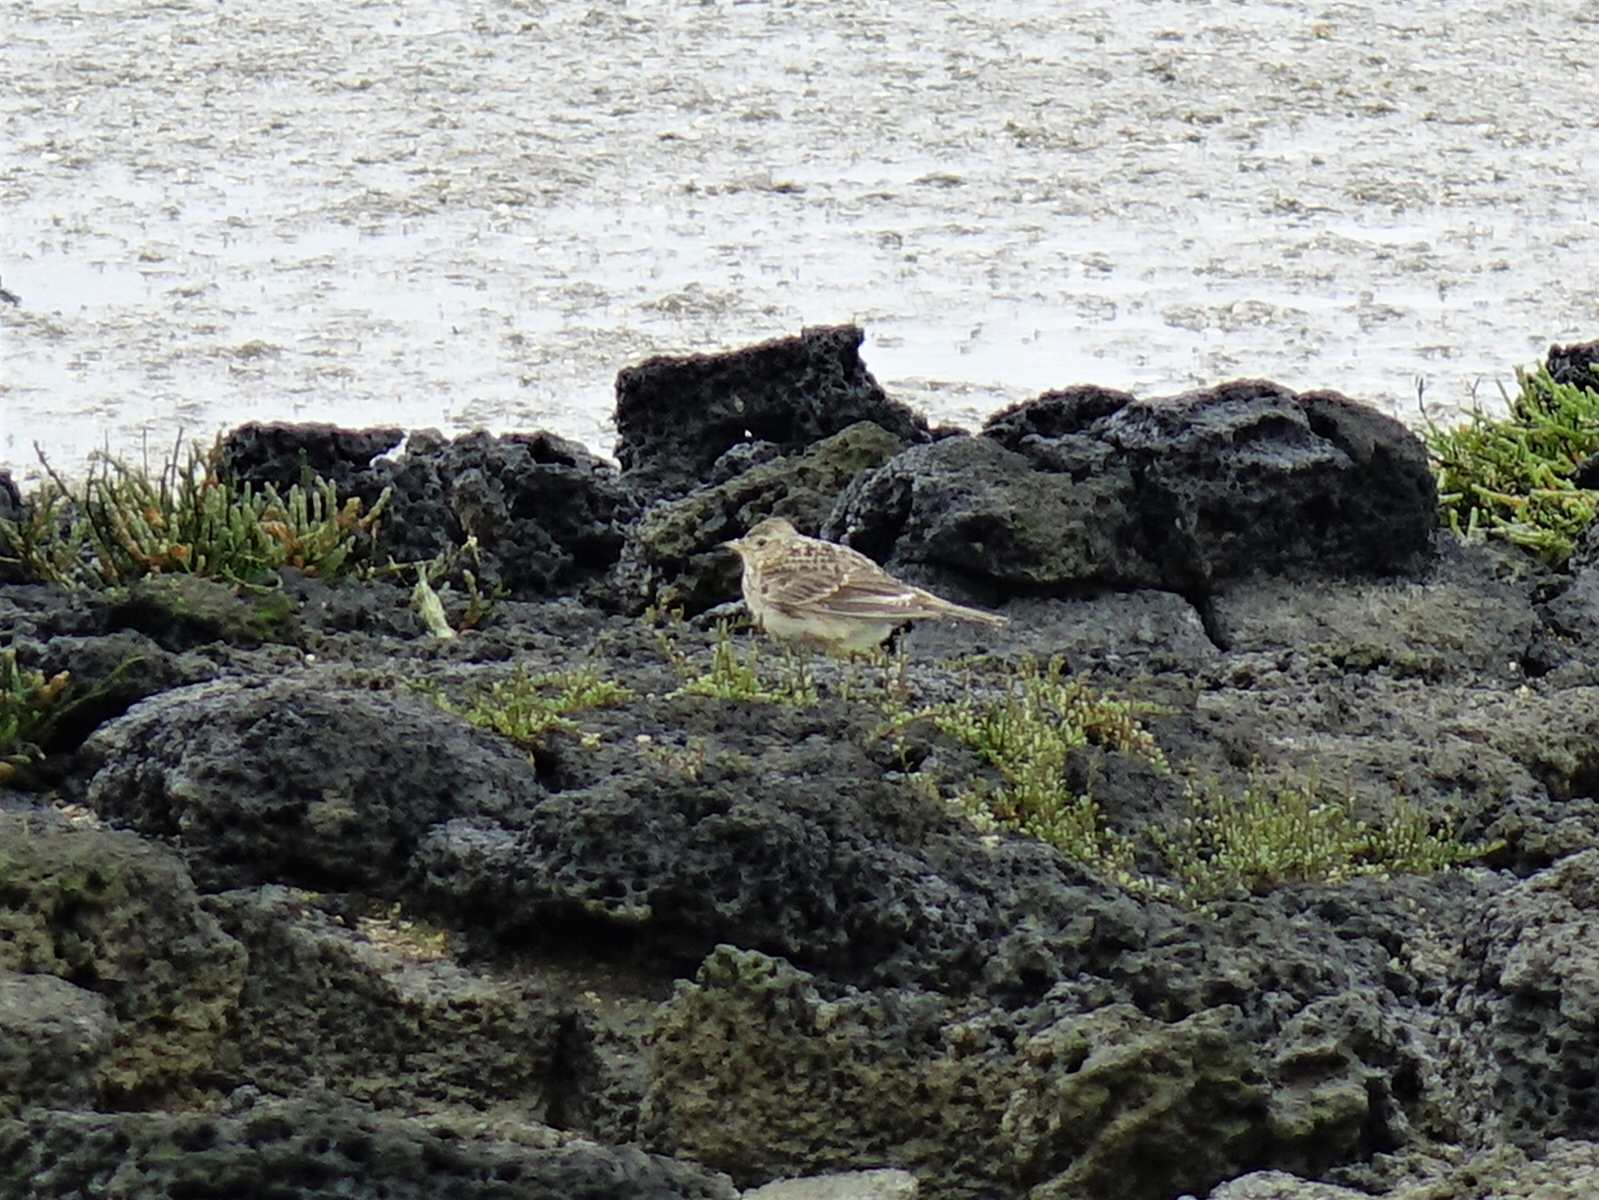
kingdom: Animalia
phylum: Chordata
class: Aves
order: Passeriformes
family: Alaudidae
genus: Alauda
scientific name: Alauda arvensis
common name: Eurasian skylark
